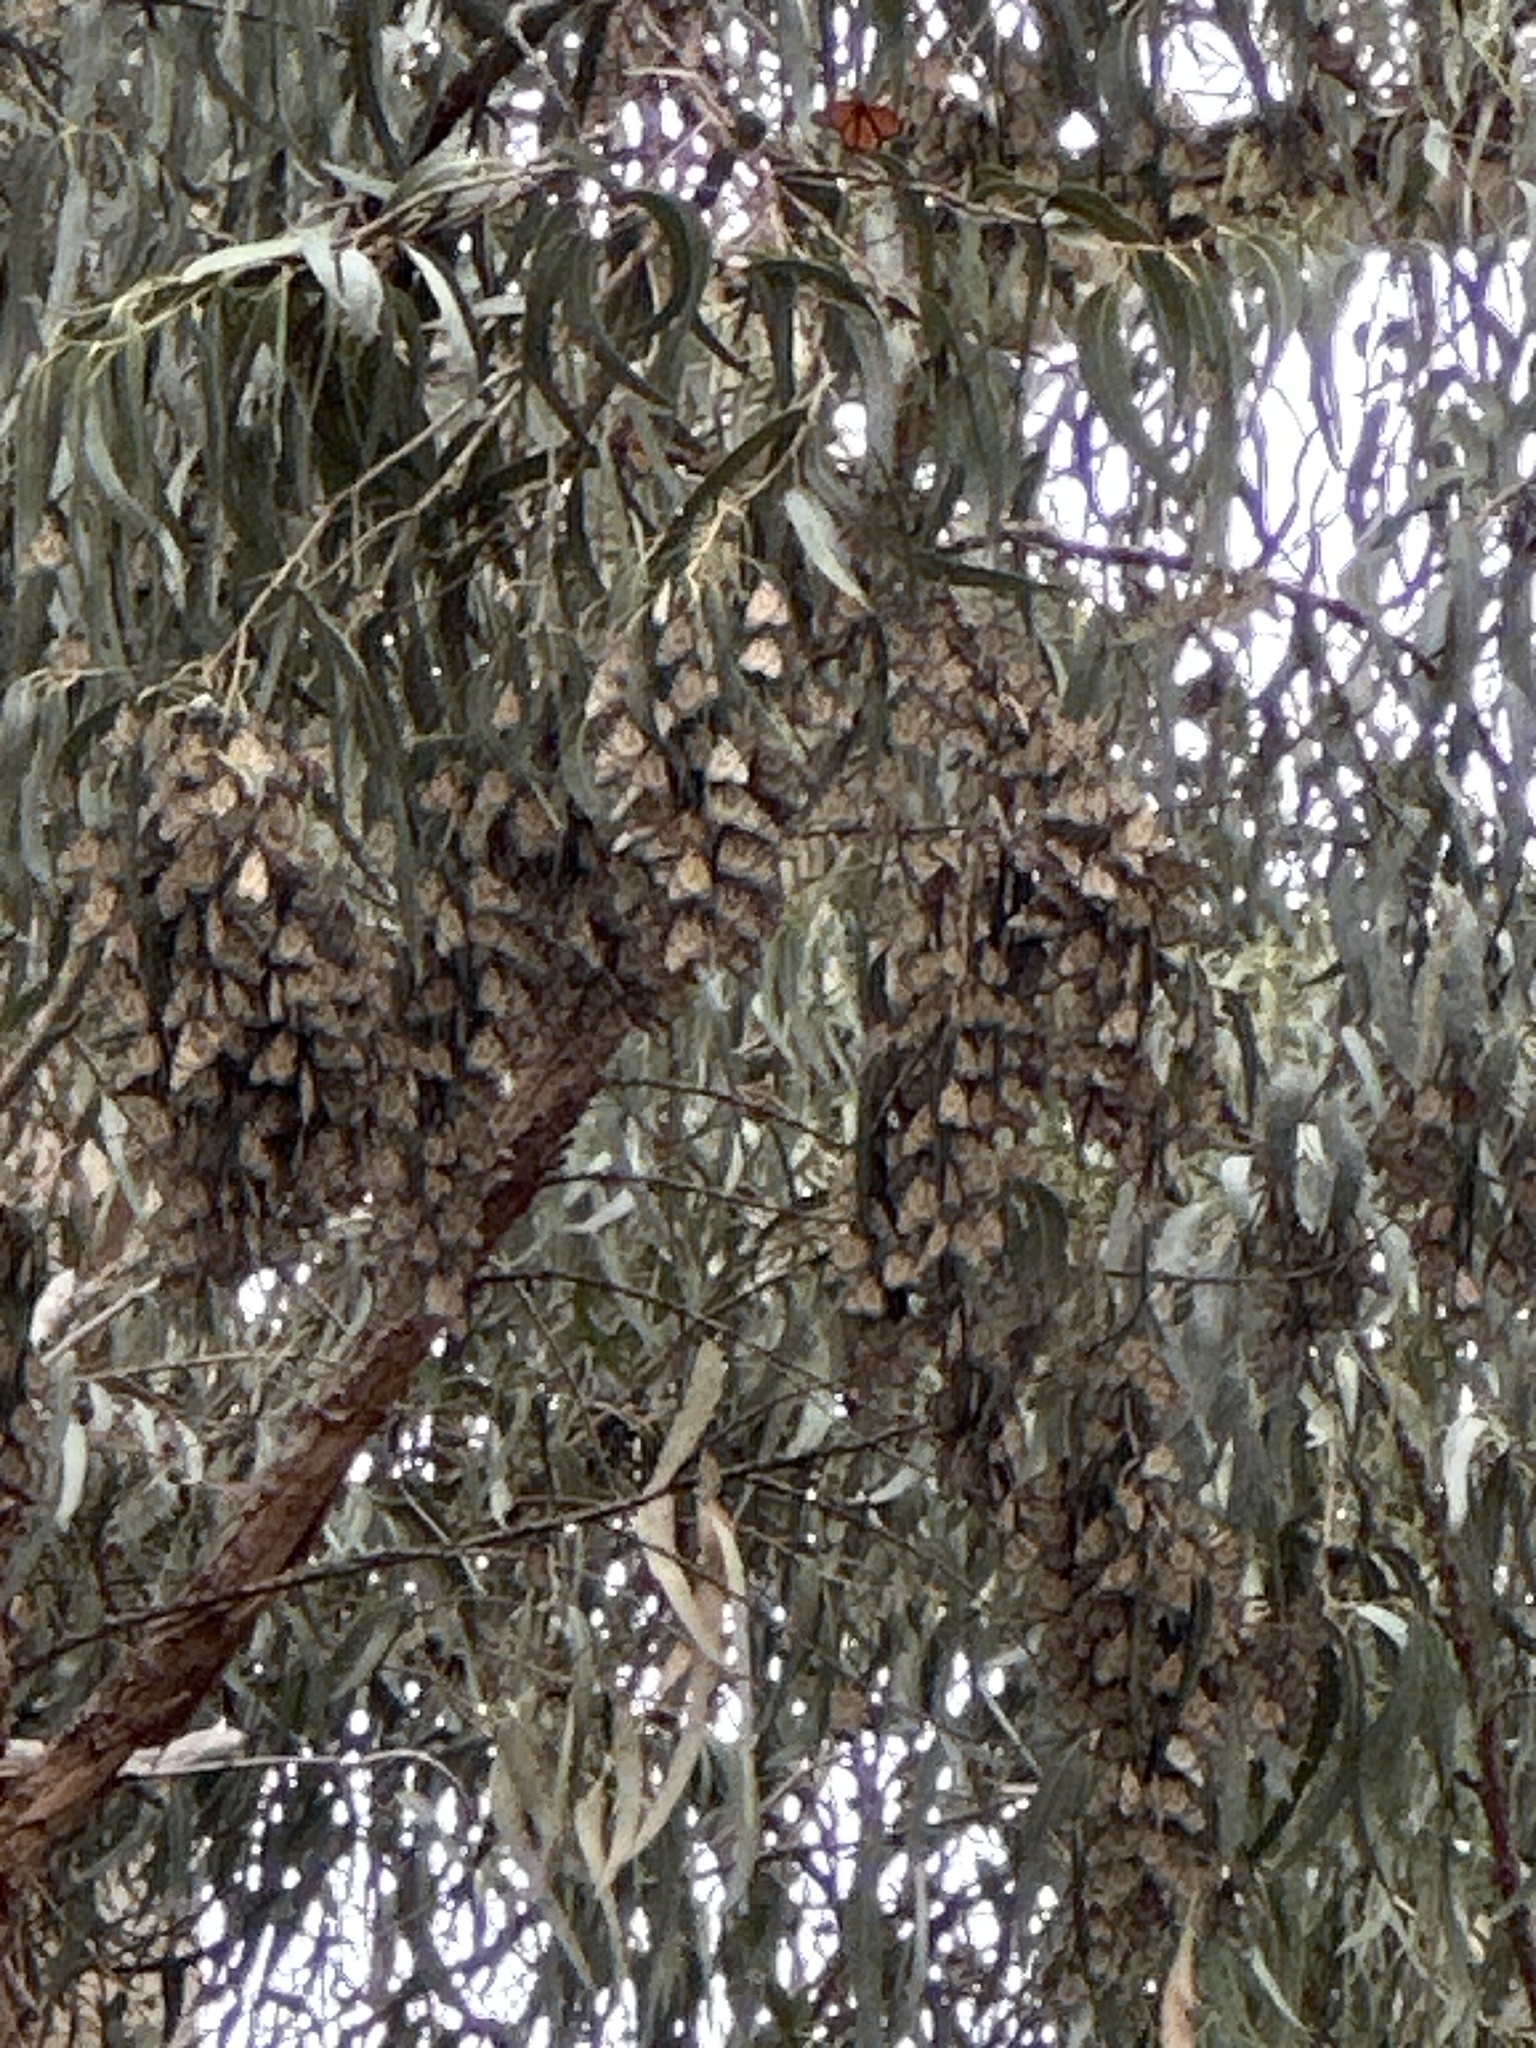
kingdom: Animalia
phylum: Arthropoda
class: Insecta
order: Lepidoptera
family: Nymphalidae
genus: Danaus
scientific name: Danaus plexippus
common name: Monarch
